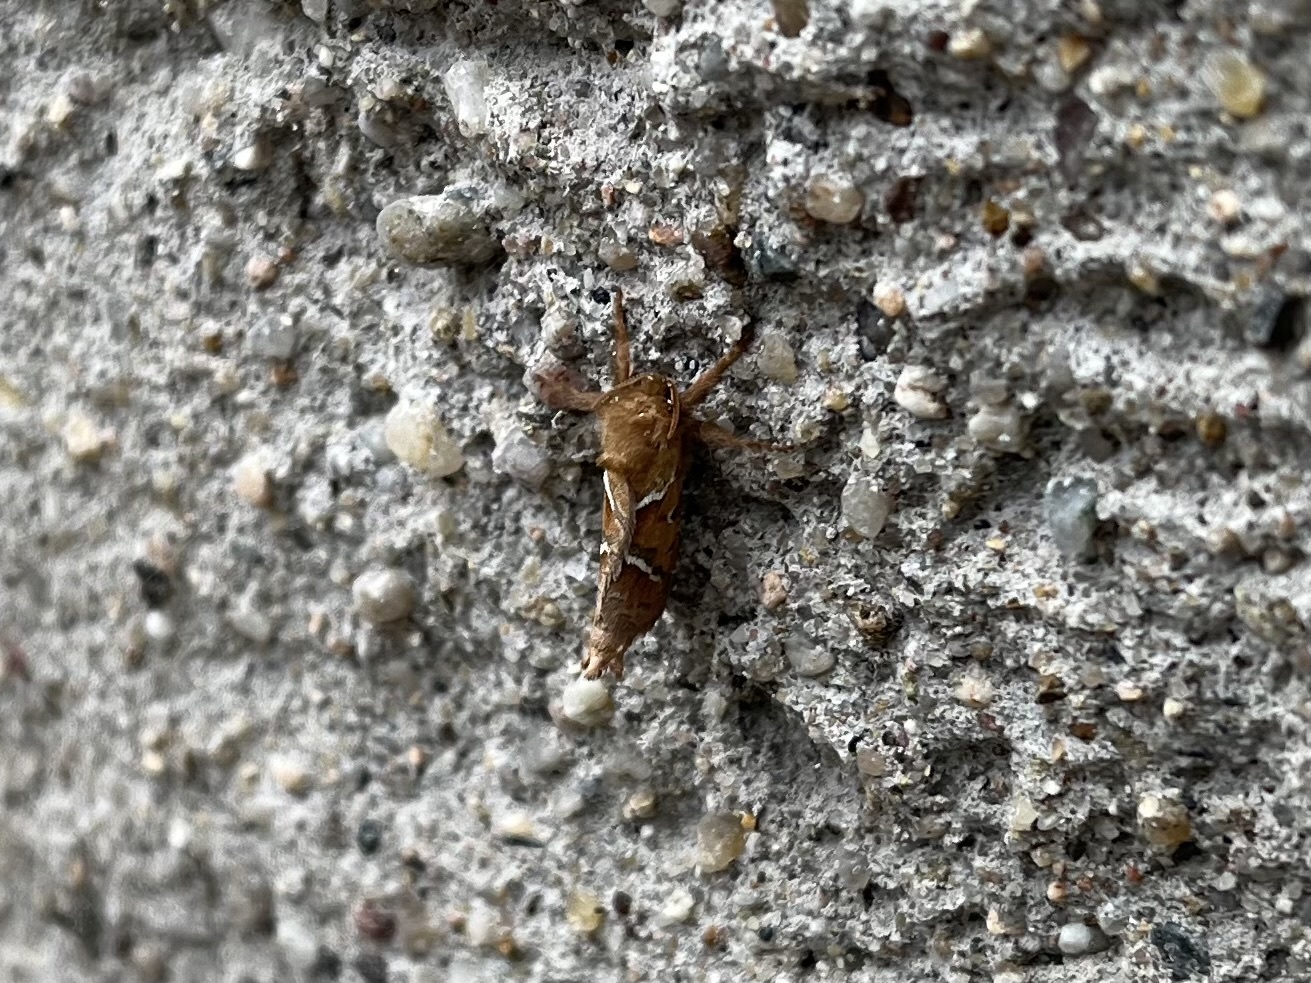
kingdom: Animalia
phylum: Arthropoda
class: Insecta
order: Lepidoptera
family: Hepialidae
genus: Triodia
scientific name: Triodia sylvina
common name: Orange swift
